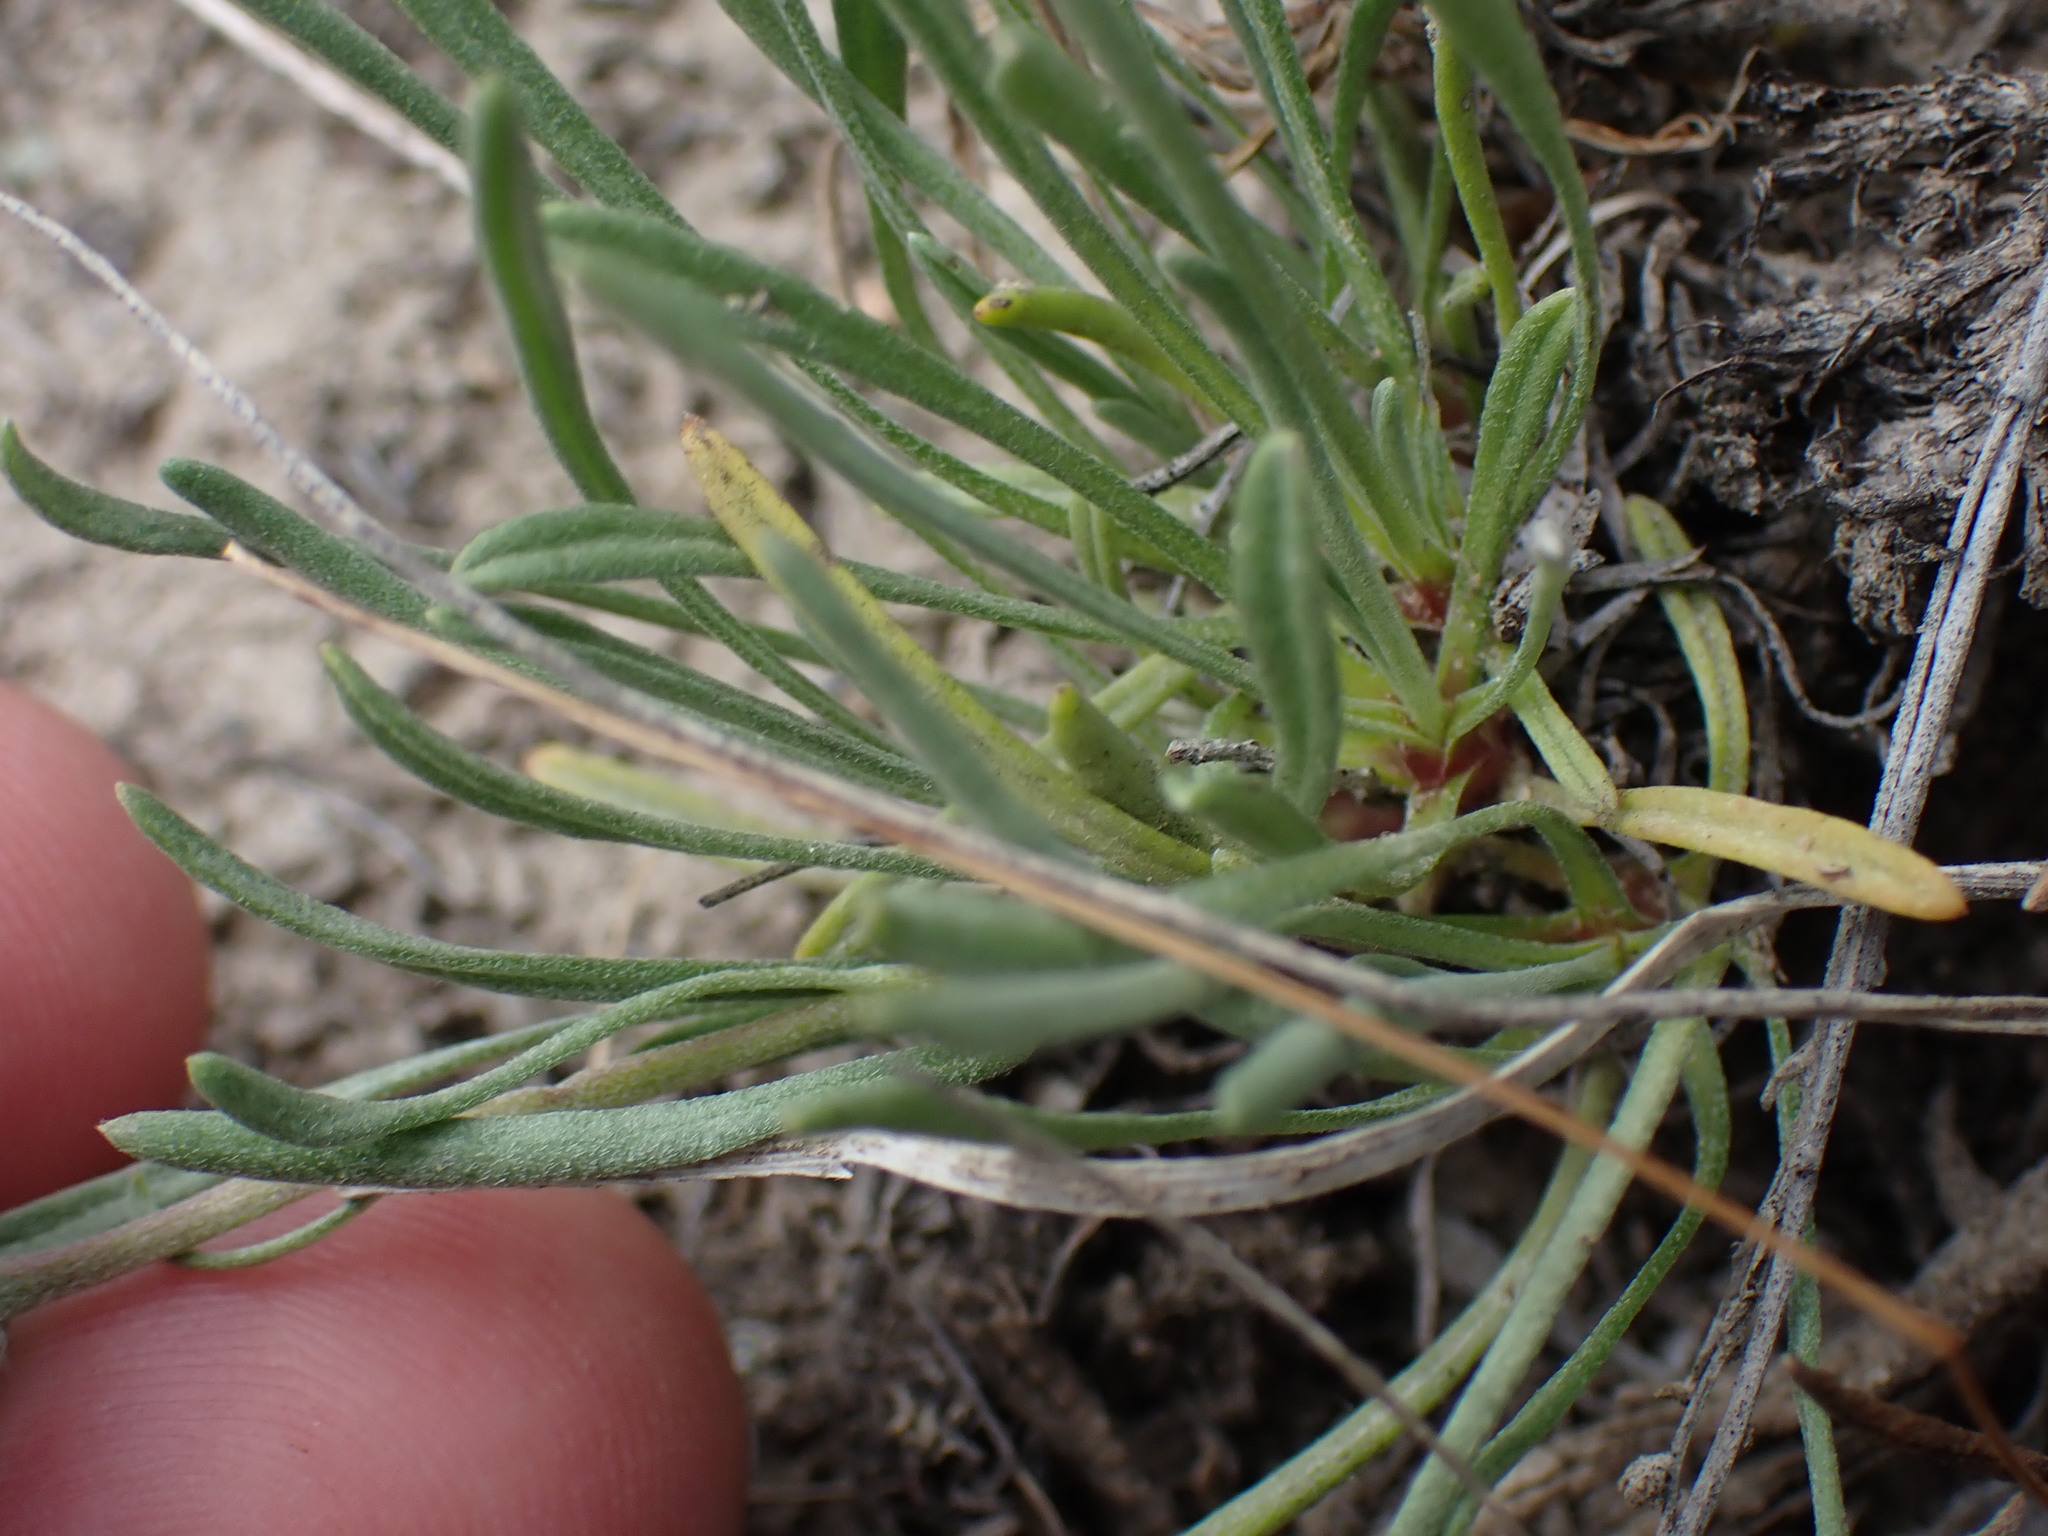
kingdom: Plantae
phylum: Tracheophyta
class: Magnoliopsida
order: Asterales
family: Asteraceae
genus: Erigeron
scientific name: Erigeron linearis
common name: Desert yellow fleabane
